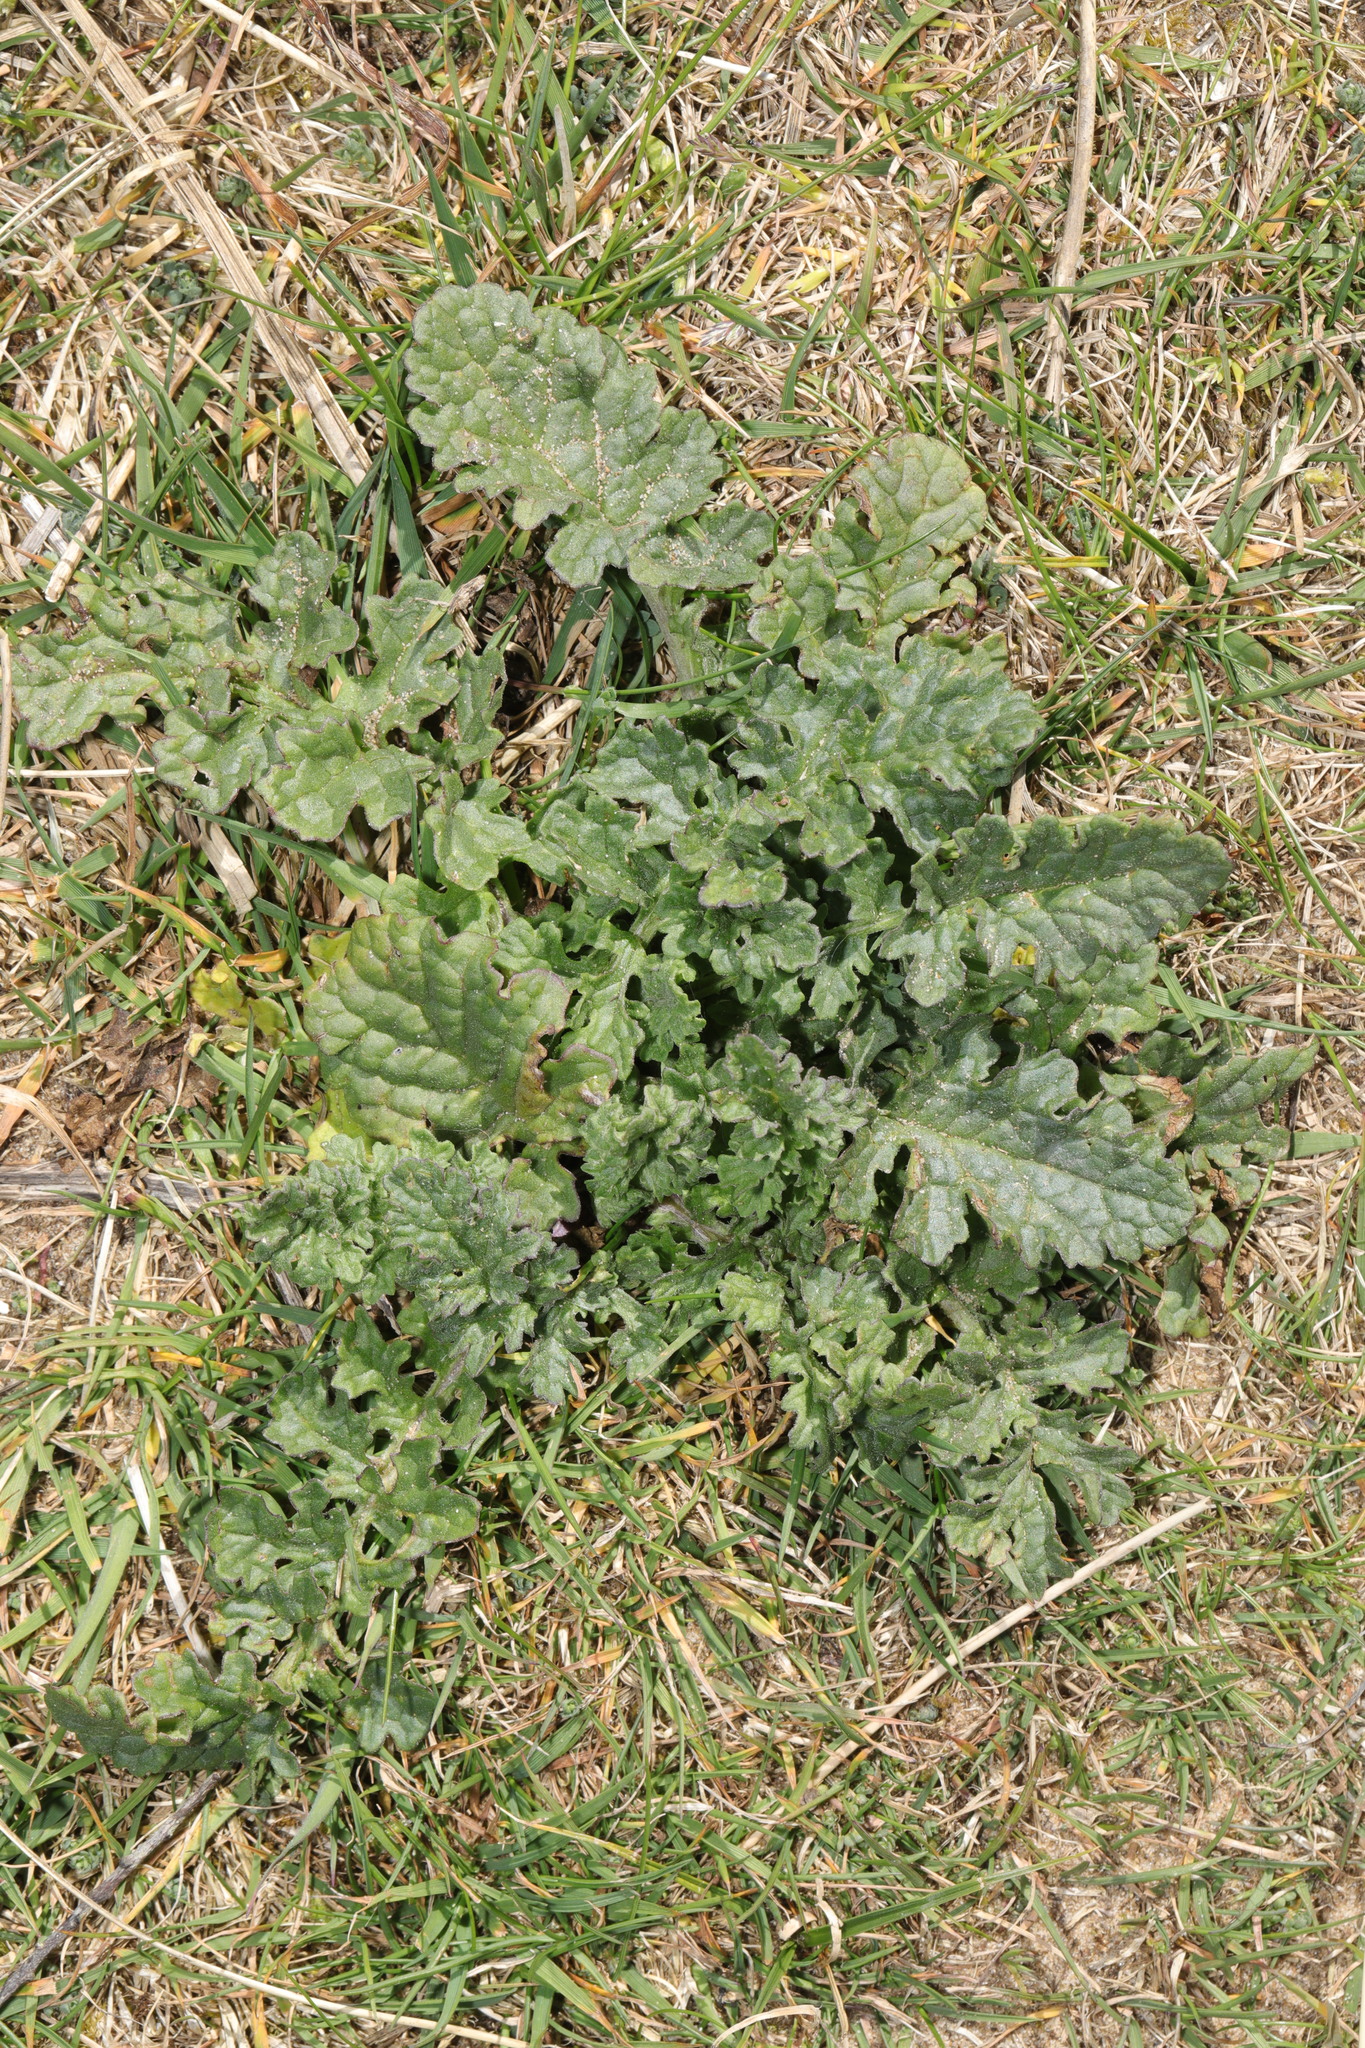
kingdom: Plantae
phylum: Tracheophyta
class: Magnoliopsida
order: Asterales
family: Asteraceae
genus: Jacobaea
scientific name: Jacobaea vulgaris
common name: Stinking willie
